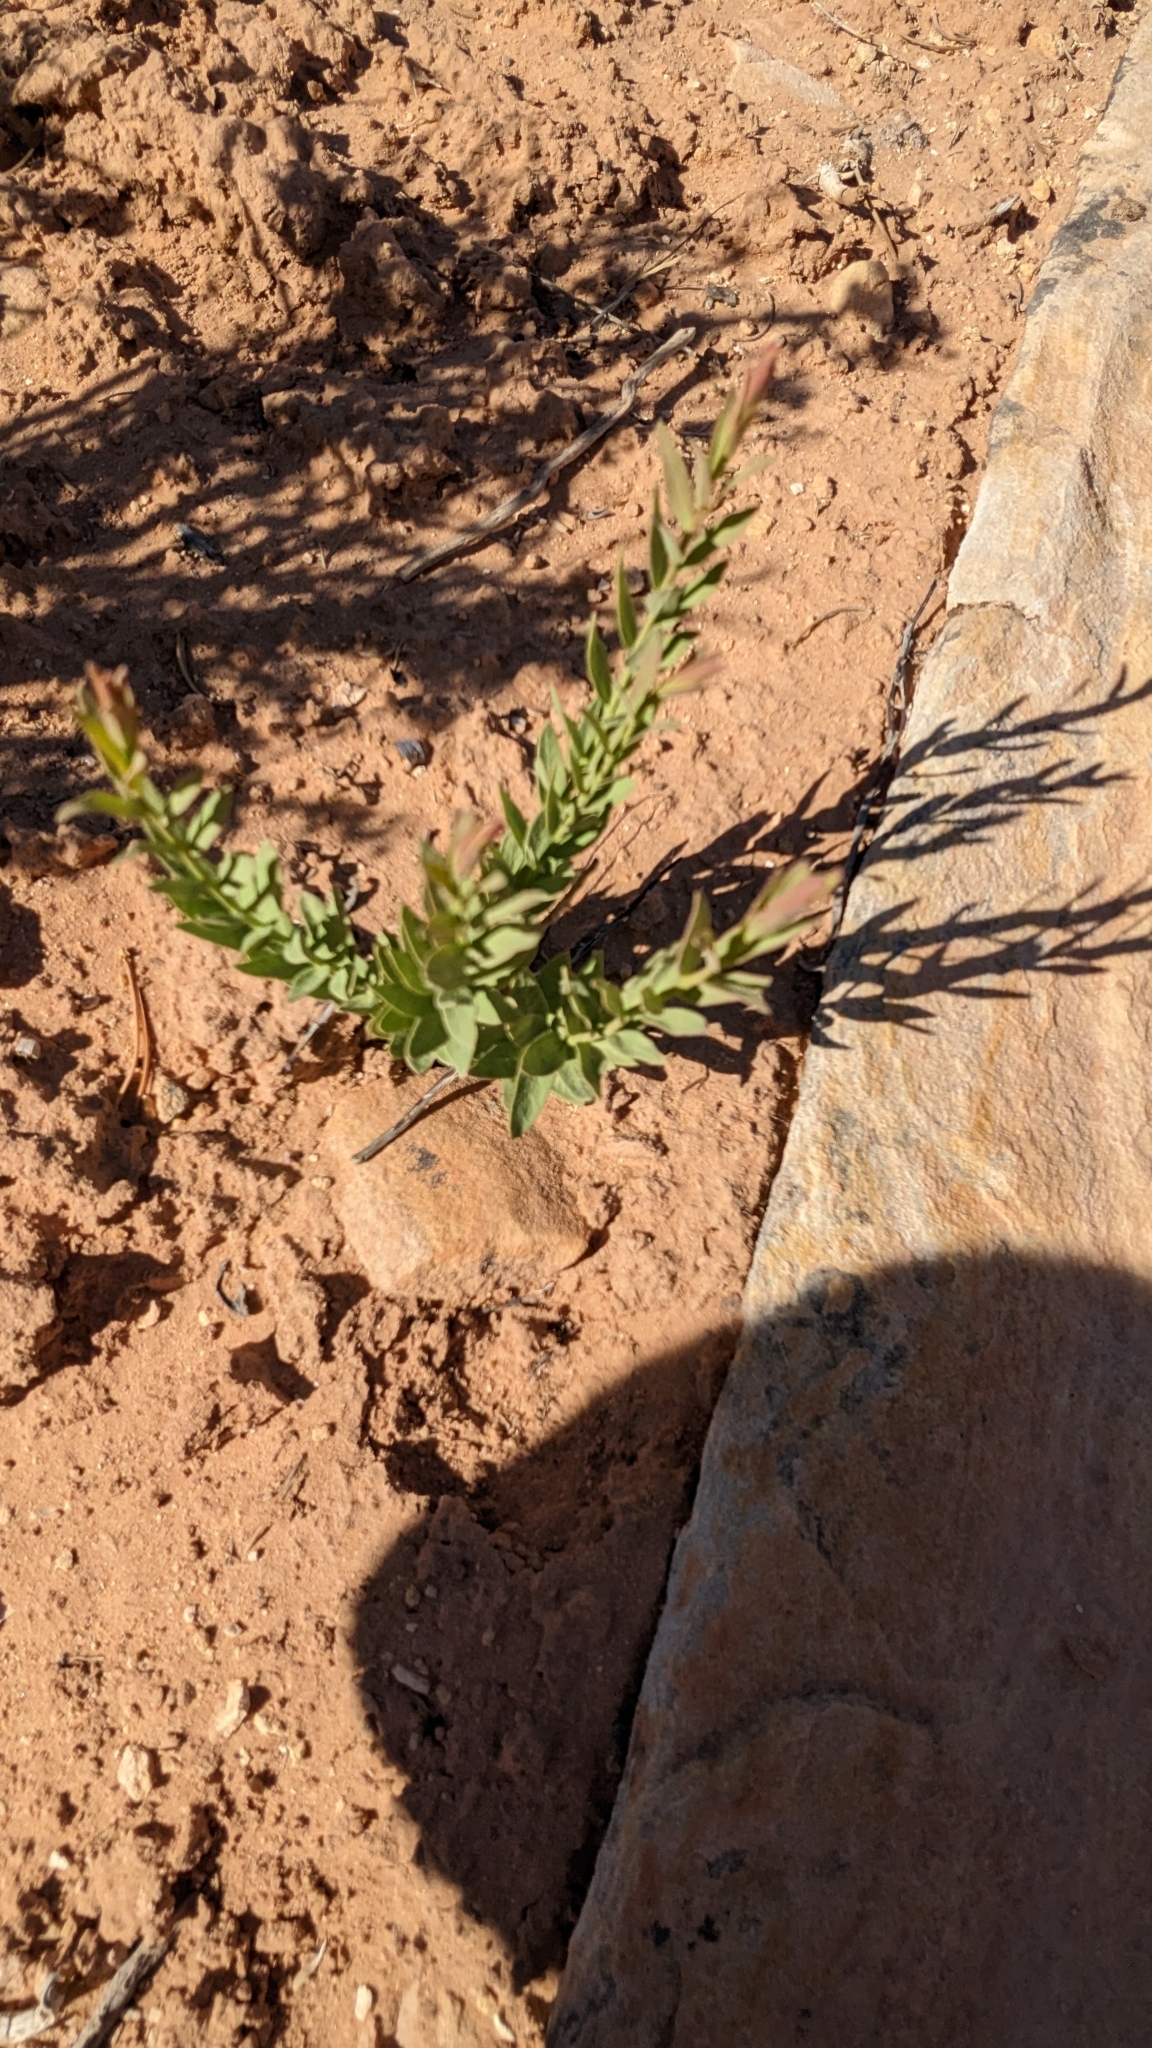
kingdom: Plantae
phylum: Tracheophyta
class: Magnoliopsida
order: Santalales
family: Comandraceae
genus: Comandra
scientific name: Comandra umbellata
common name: Bastard toadflax
